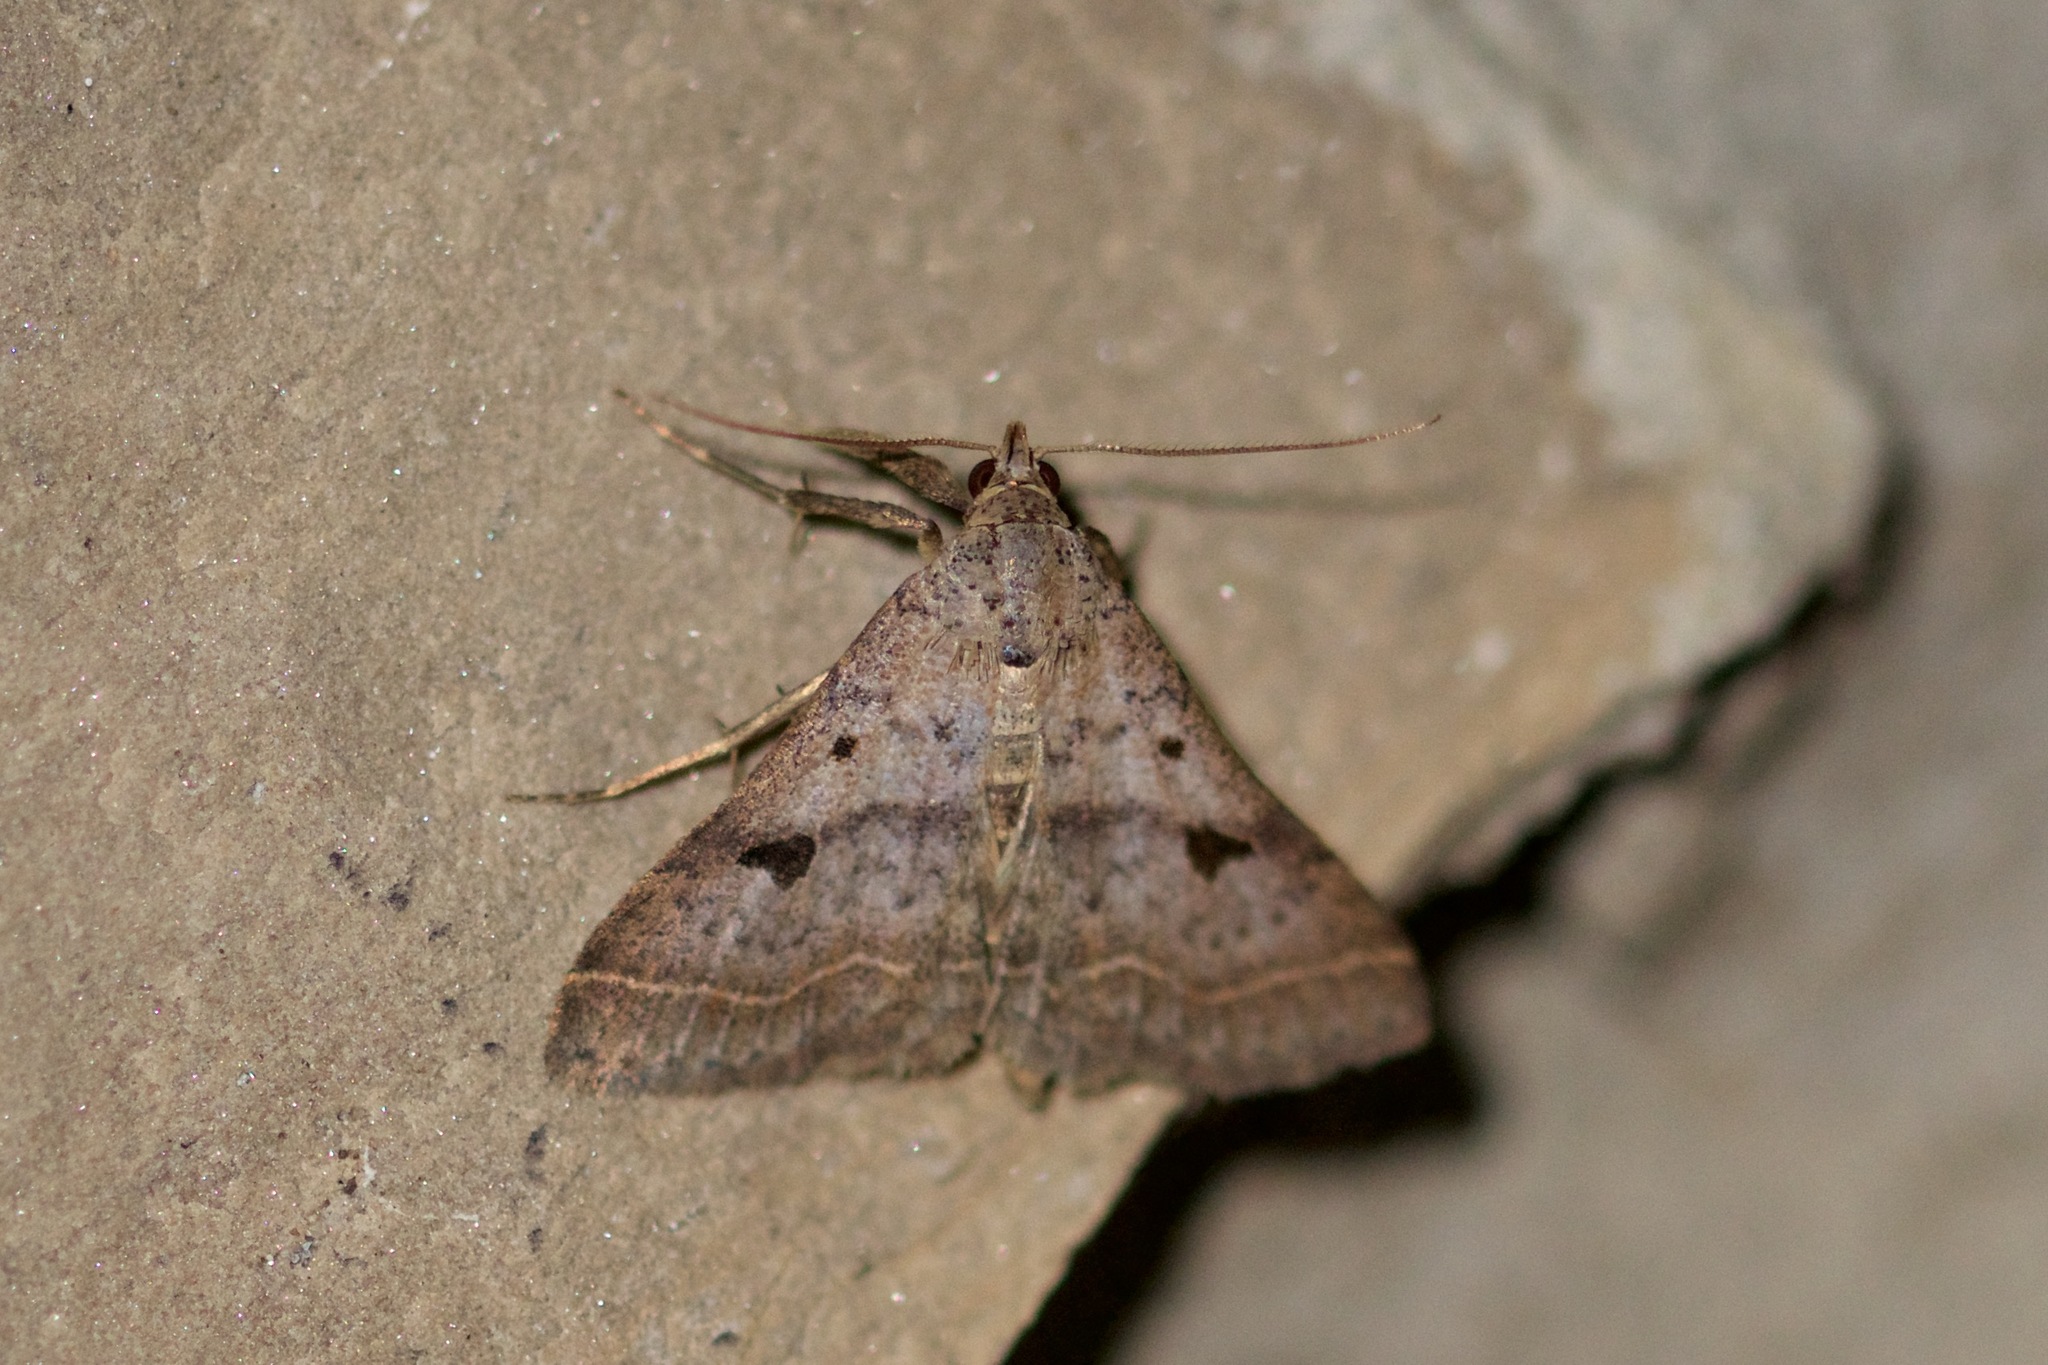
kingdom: Animalia
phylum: Arthropoda
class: Insecta
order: Lepidoptera
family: Erebidae
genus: Bleptina
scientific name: Bleptina caradrinalis
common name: Bent-winged owlet
